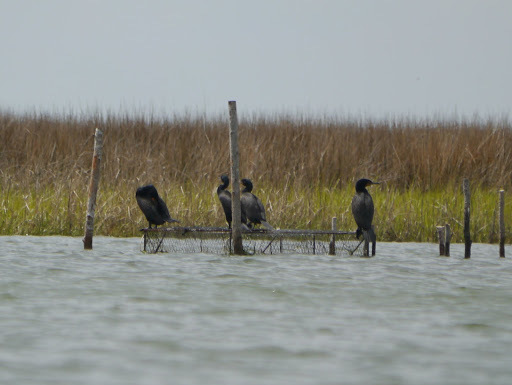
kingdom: Animalia
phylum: Chordata
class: Aves
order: Suliformes
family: Phalacrocoracidae
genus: Phalacrocorax
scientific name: Phalacrocorax auritus
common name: Double-crested cormorant
